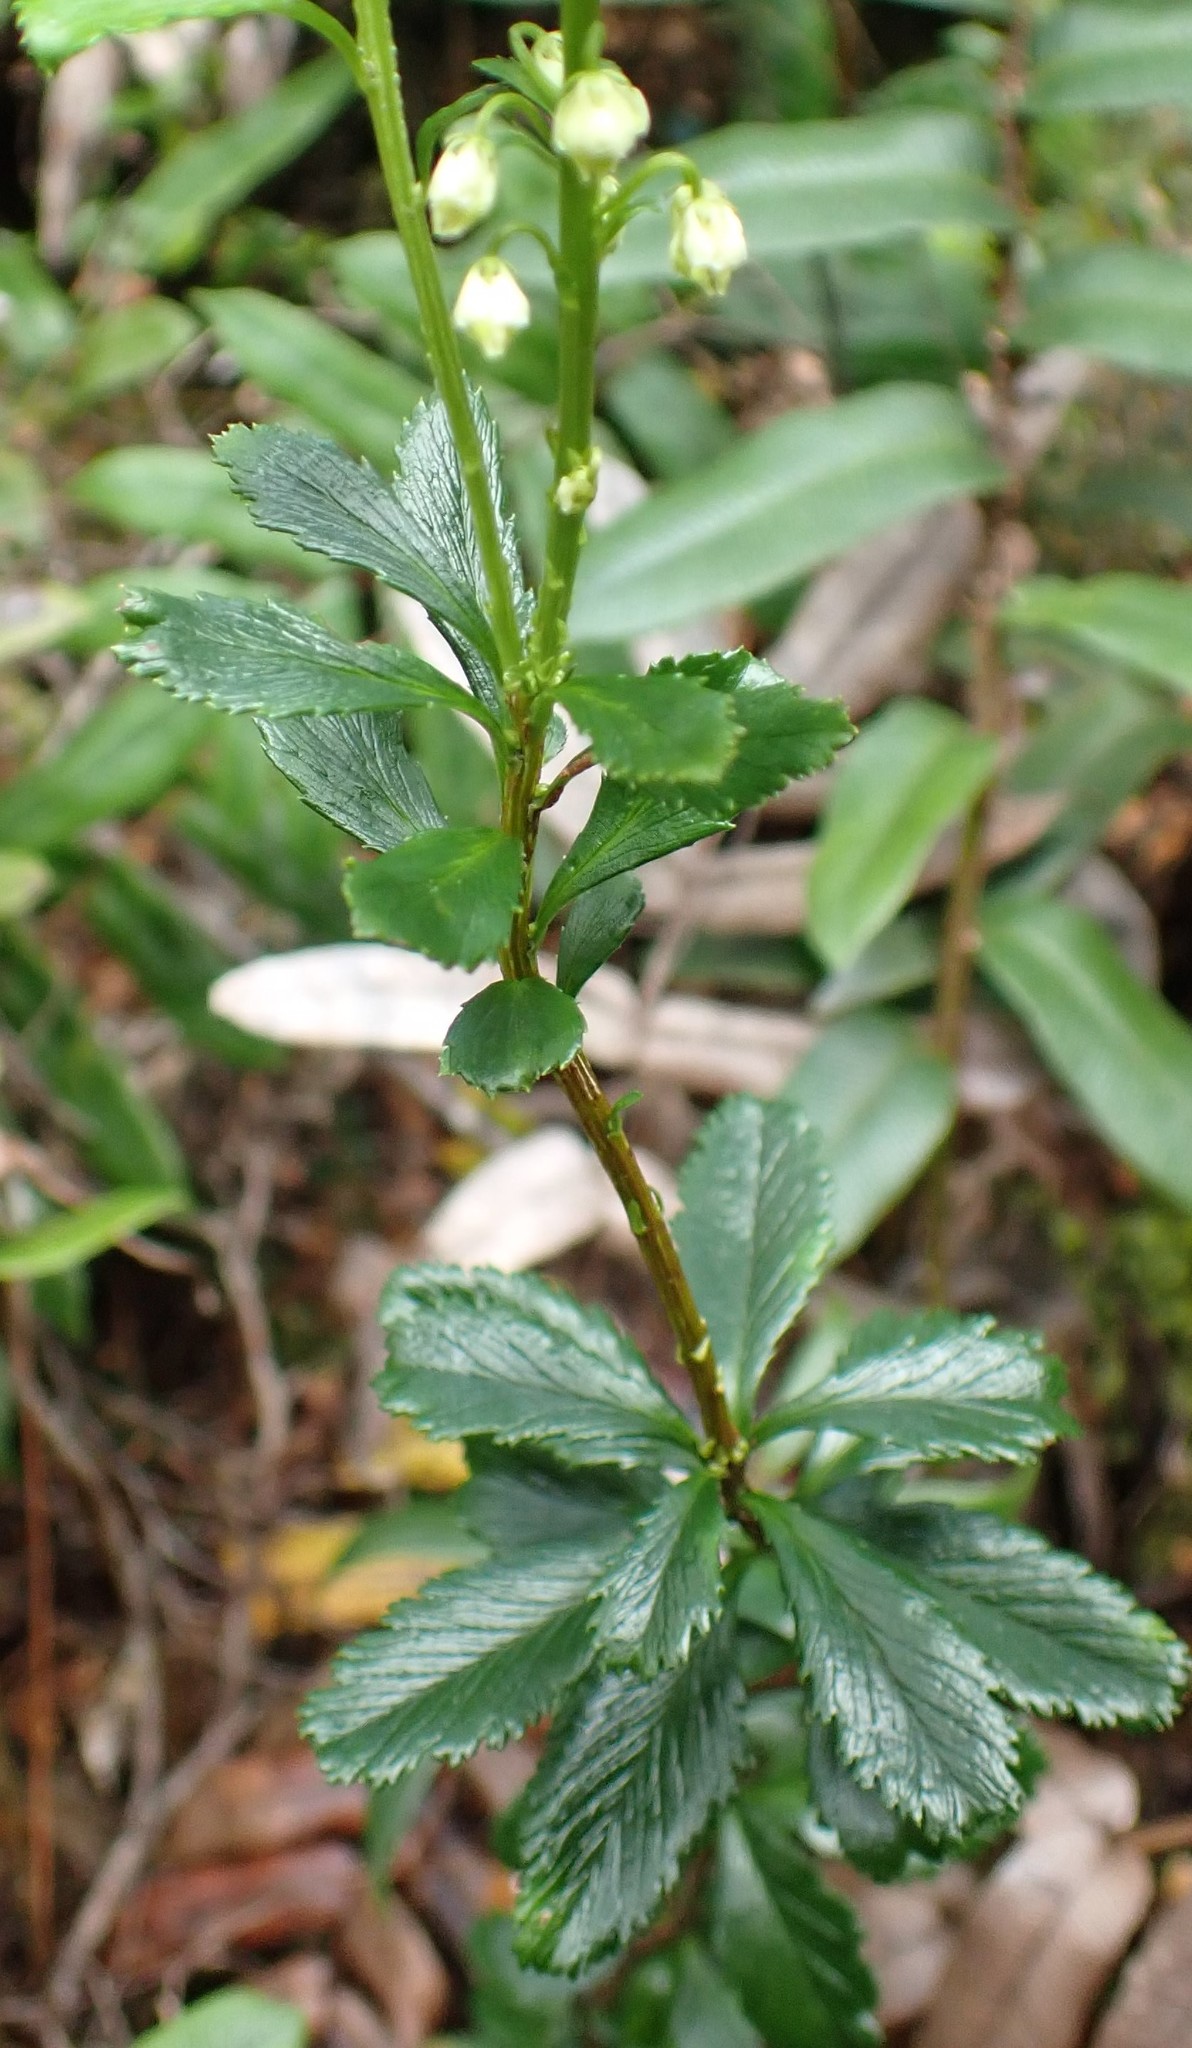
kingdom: Plantae
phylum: Tracheophyta
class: Magnoliopsida
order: Saxifragales
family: Tetracarpaeaceae
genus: Tetracarpaea
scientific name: Tetracarpaea tasmanica
